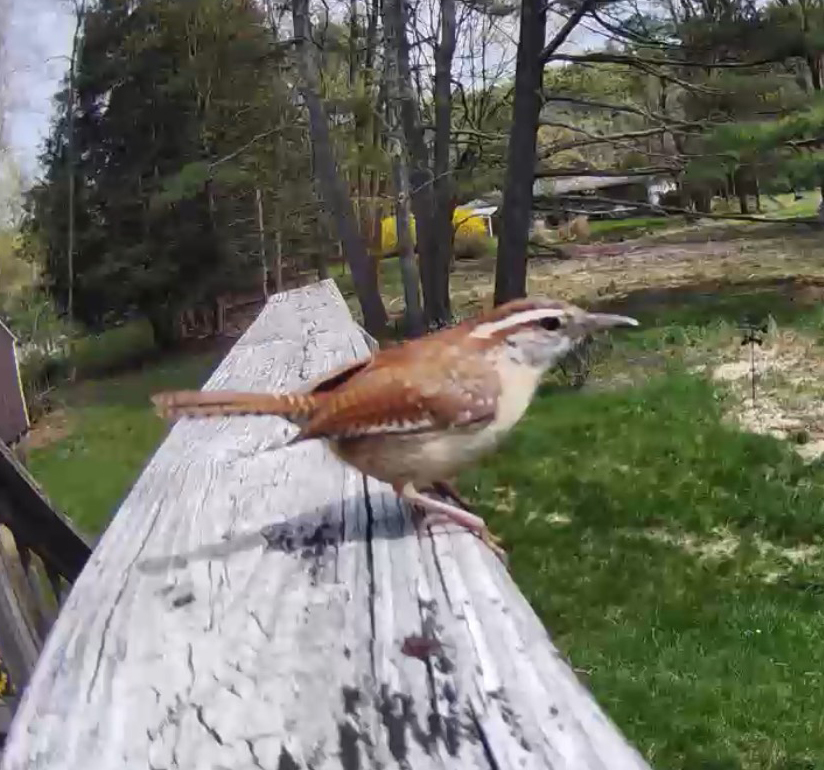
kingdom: Animalia
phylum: Chordata
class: Aves
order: Passeriformes
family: Troglodytidae
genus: Thryothorus
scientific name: Thryothorus ludovicianus
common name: Carolina wren
